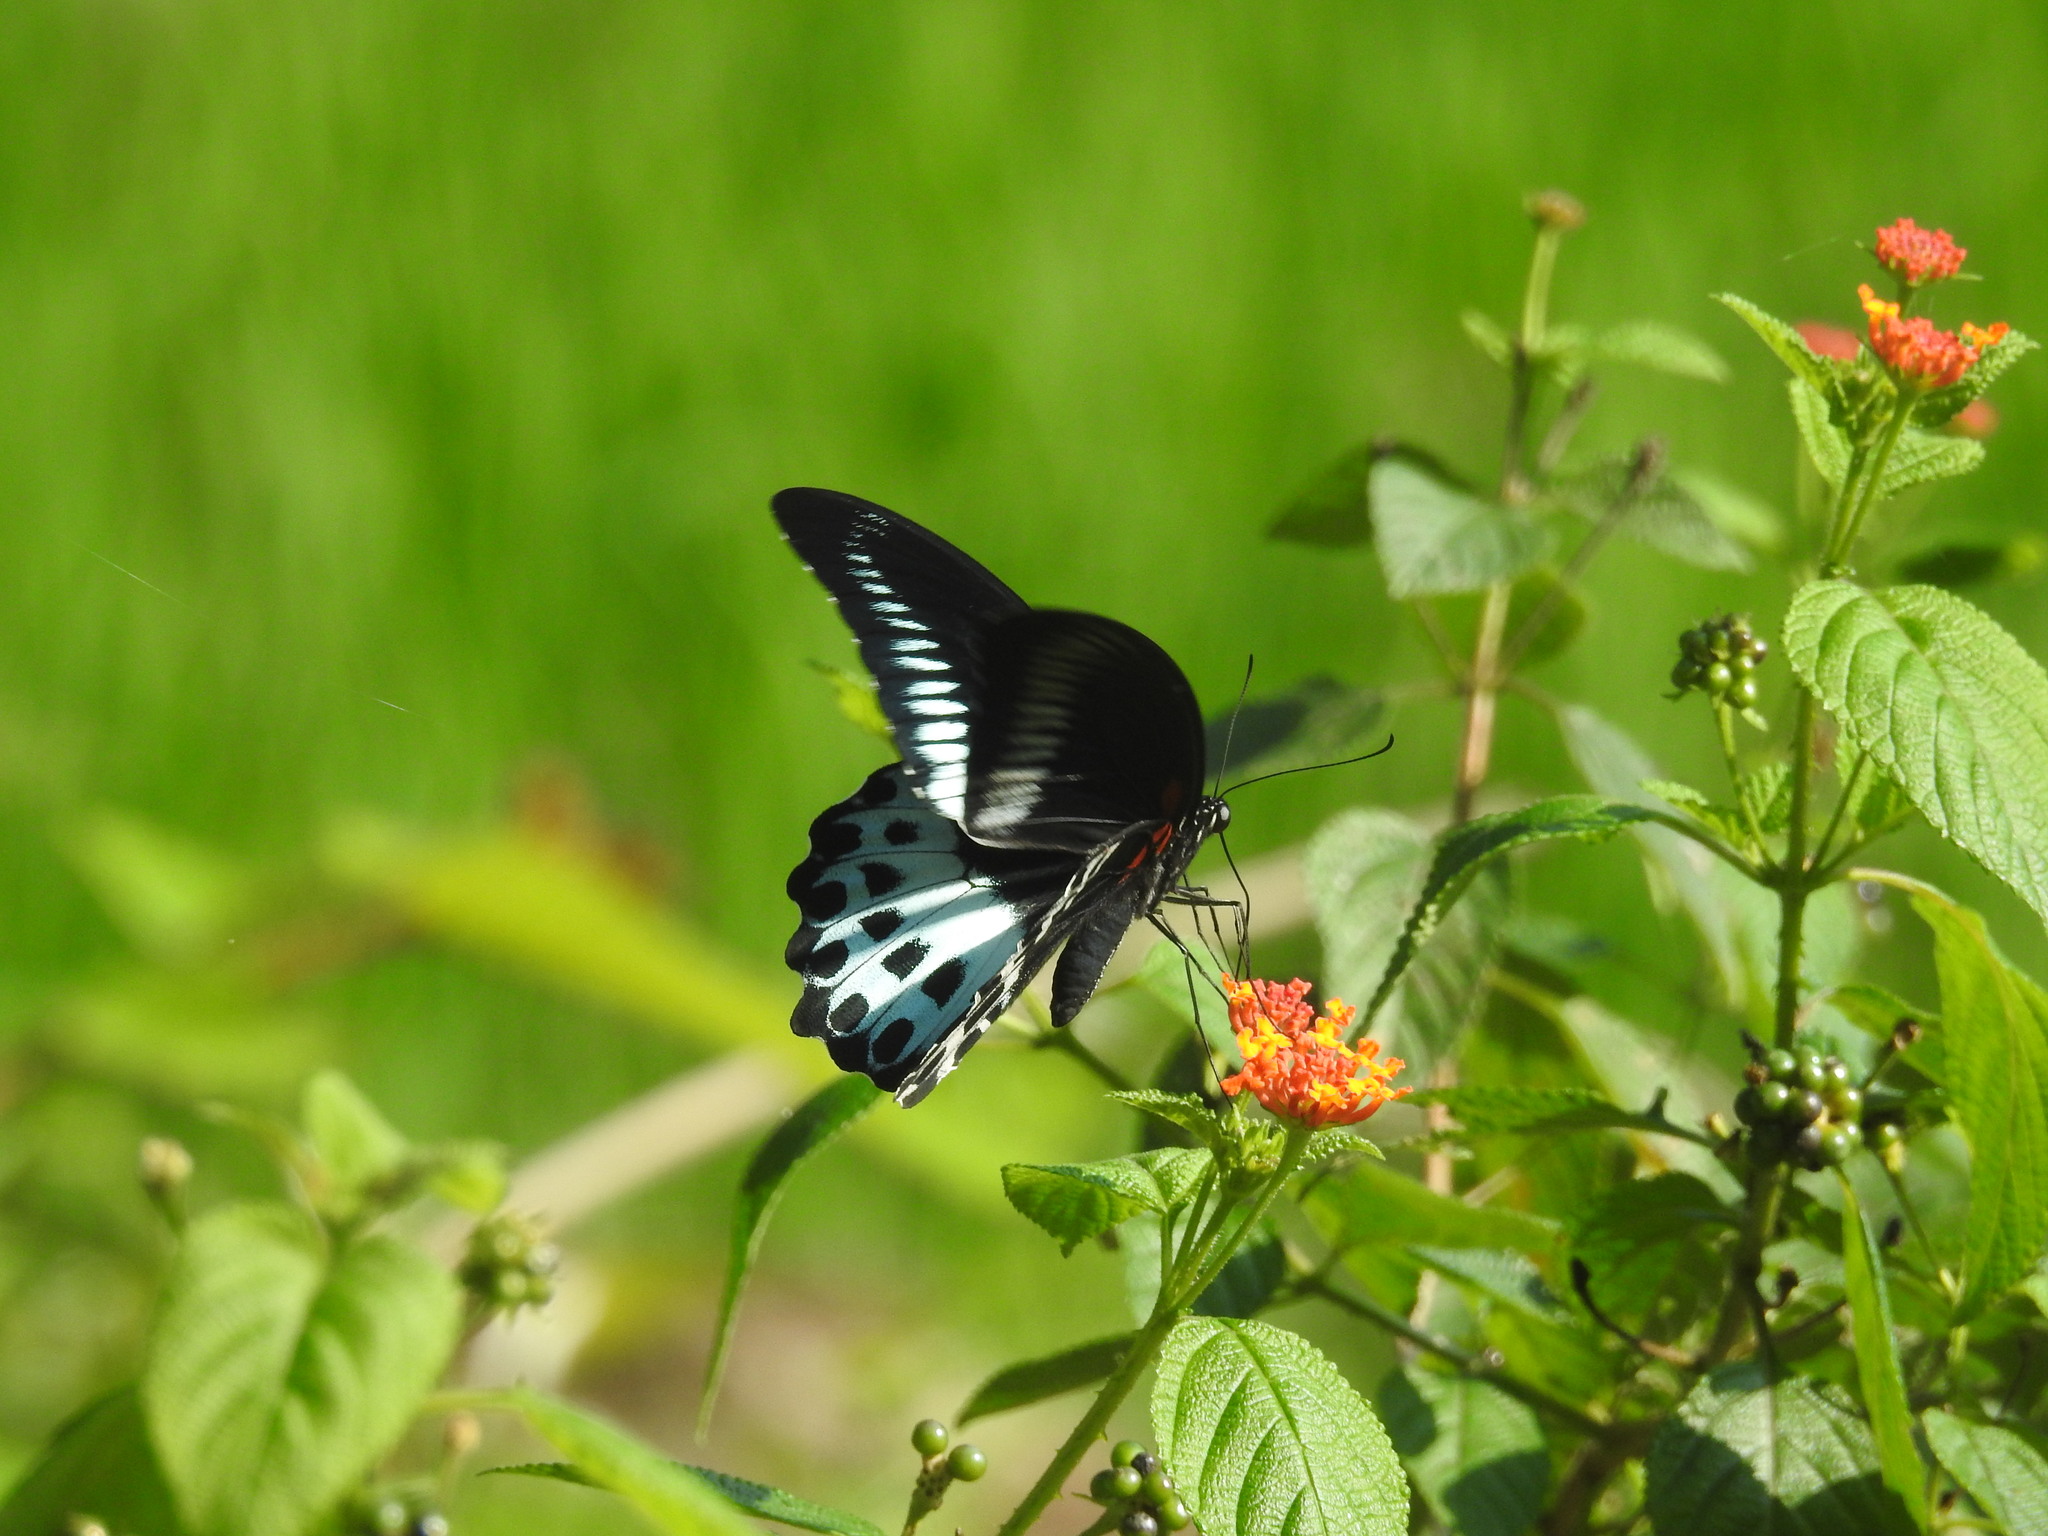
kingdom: Animalia
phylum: Arthropoda
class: Insecta
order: Lepidoptera
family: Papilionidae
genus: Papilio
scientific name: Papilio memnon
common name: Great mormon
